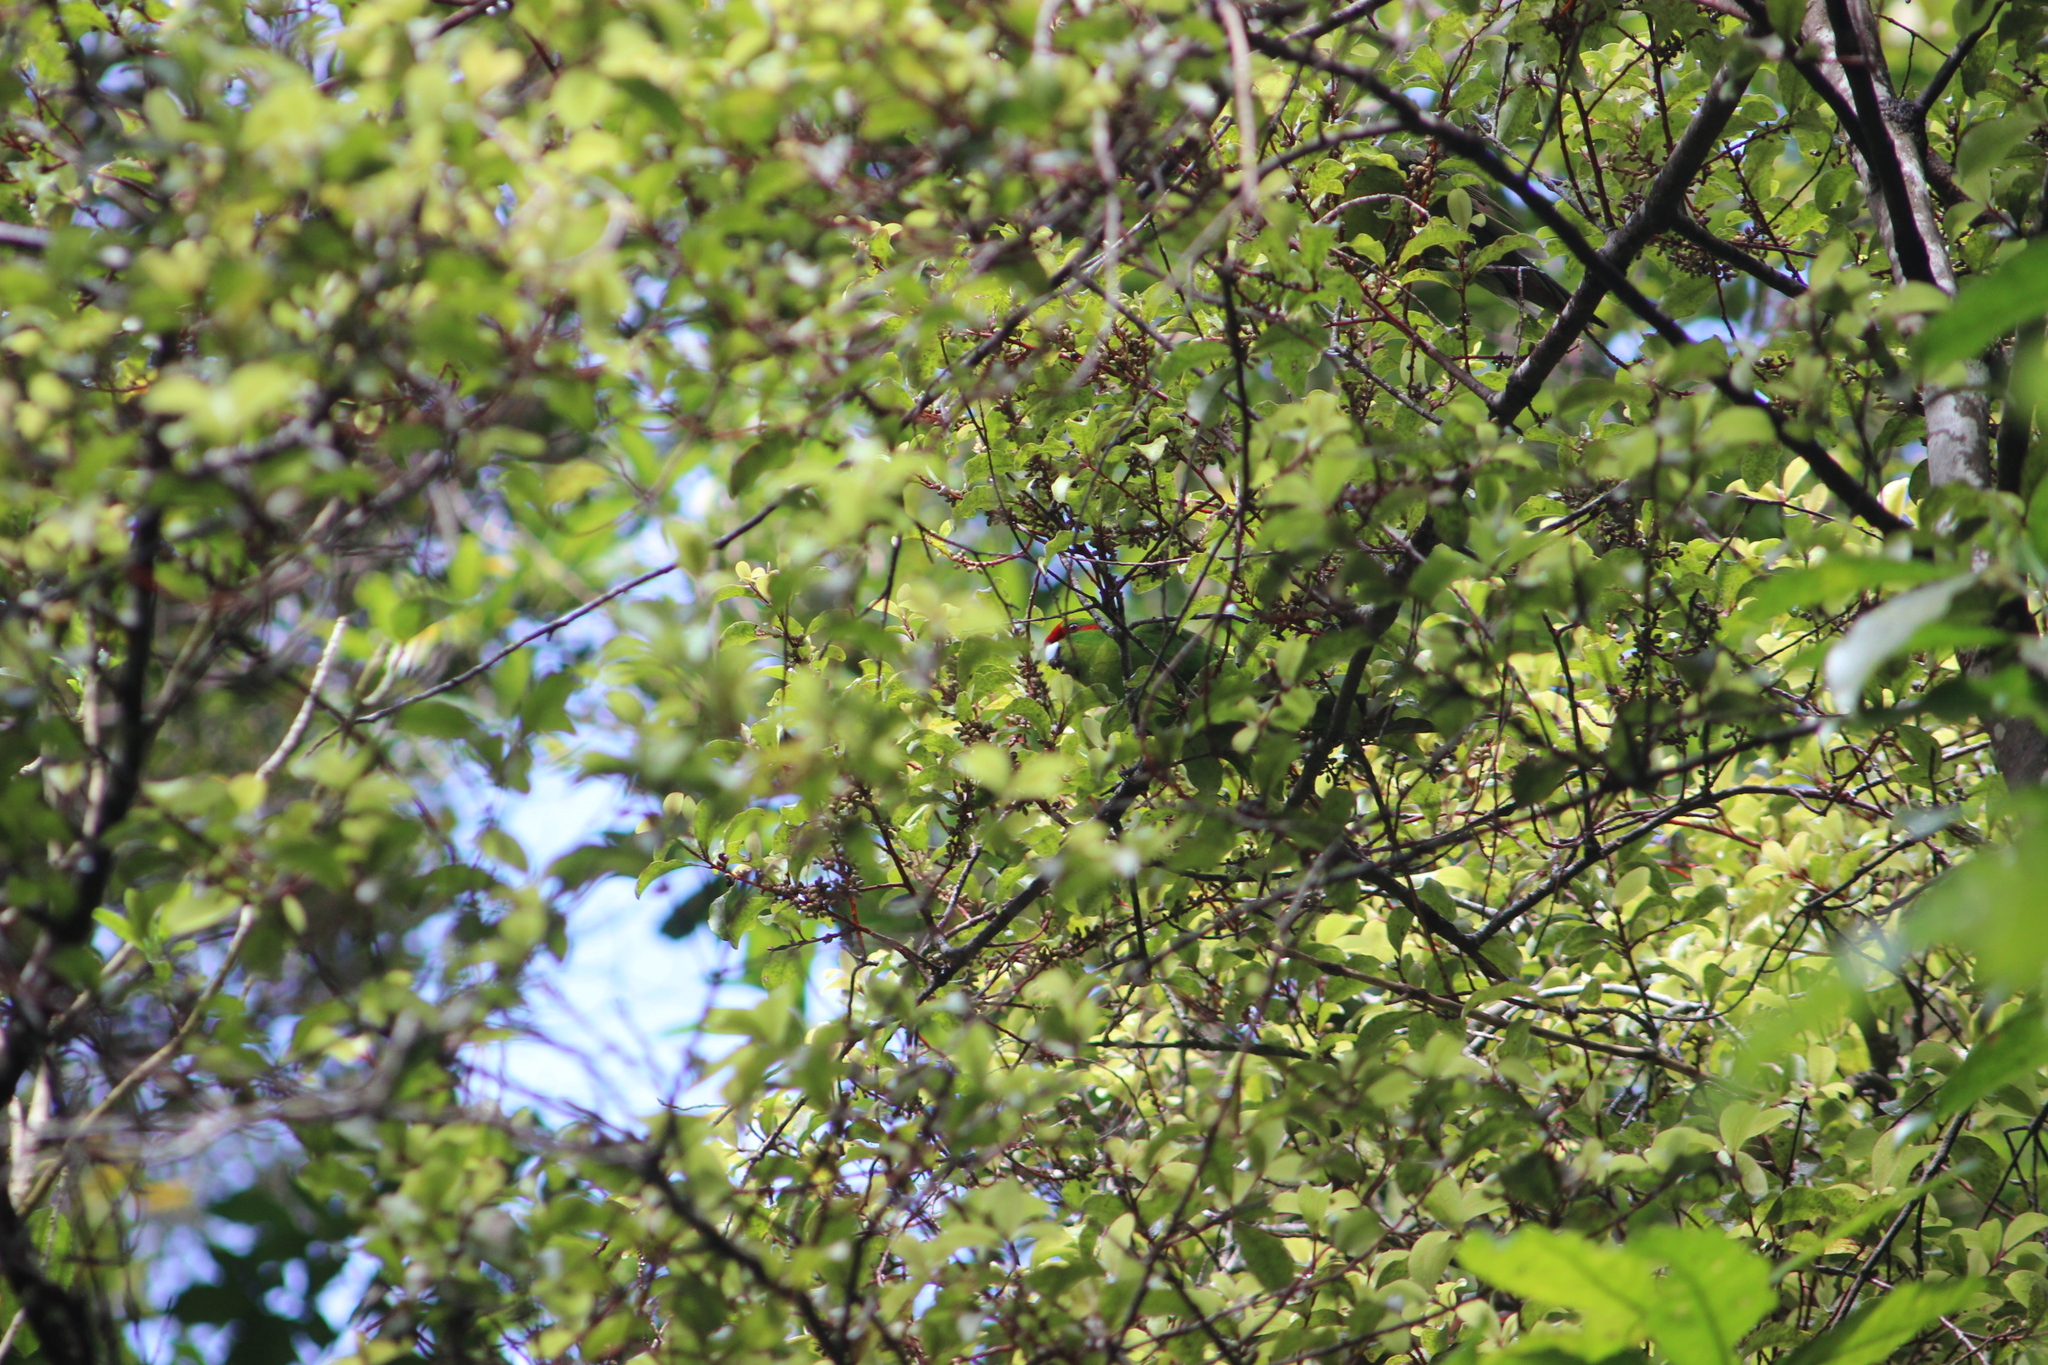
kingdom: Plantae
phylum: Tracheophyta
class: Magnoliopsida
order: Ericales
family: Primulaceae
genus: Myrsine
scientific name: Myrsine australis
